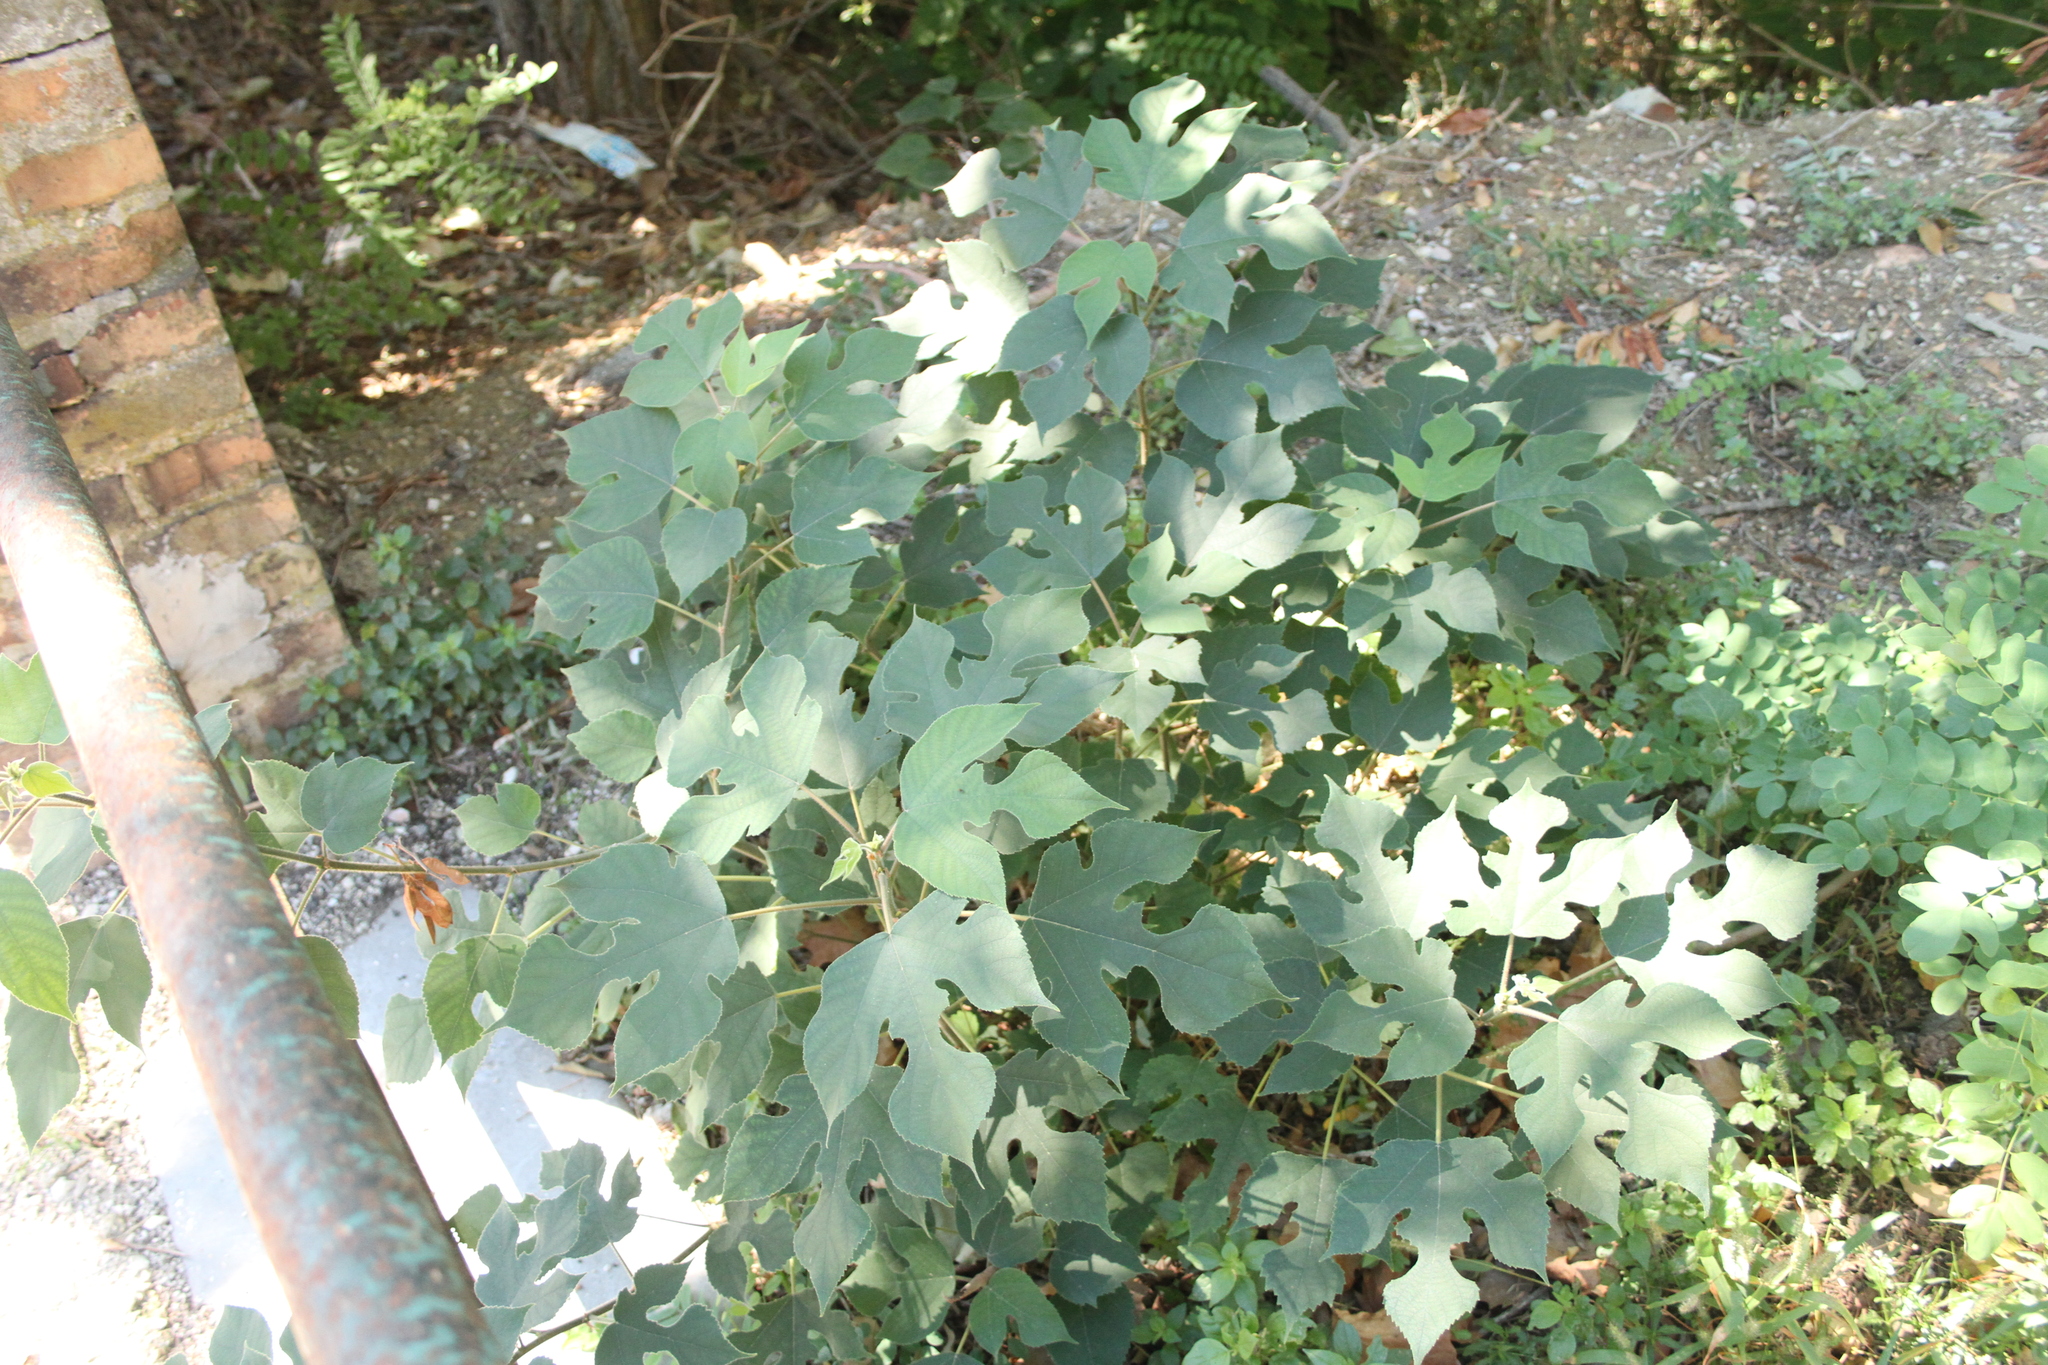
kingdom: Plantae
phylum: Tracheophyta
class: Magnoliopsida
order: Rosales
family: Moraceae
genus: Broussonetia
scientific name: Broussonetia papyrifera
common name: Paper mulberry
